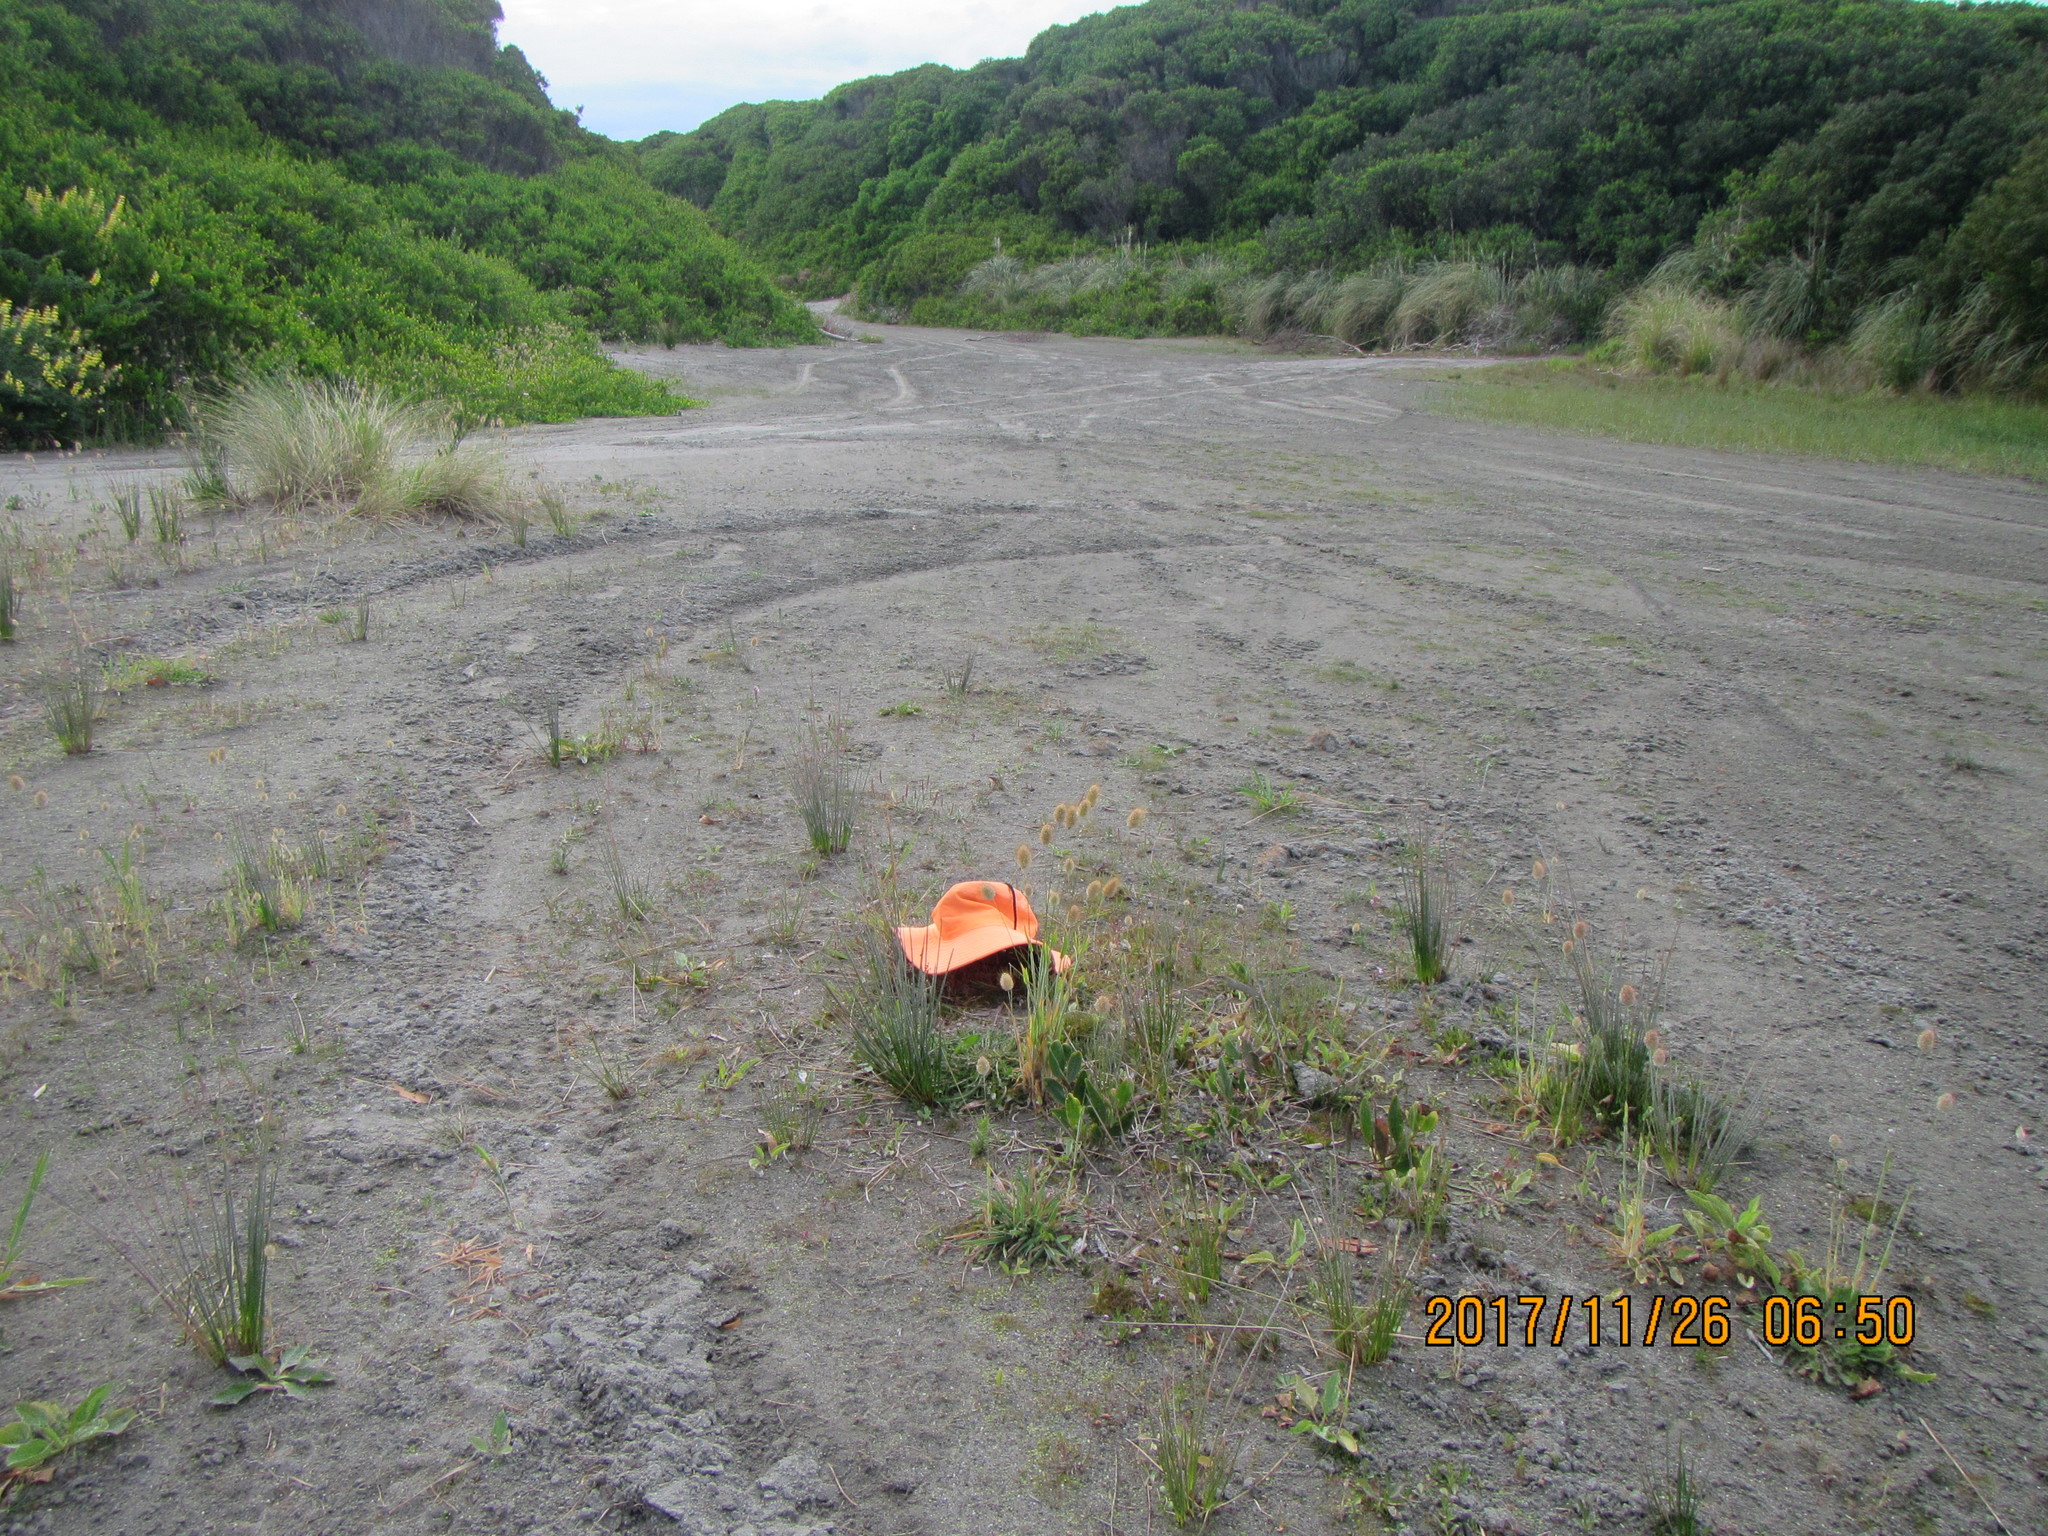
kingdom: Plantae
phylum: Tracheophyta
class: Magnoliopsida
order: Asterales
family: Campanulaceae
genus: Lobelia
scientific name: Lobelia anceps
